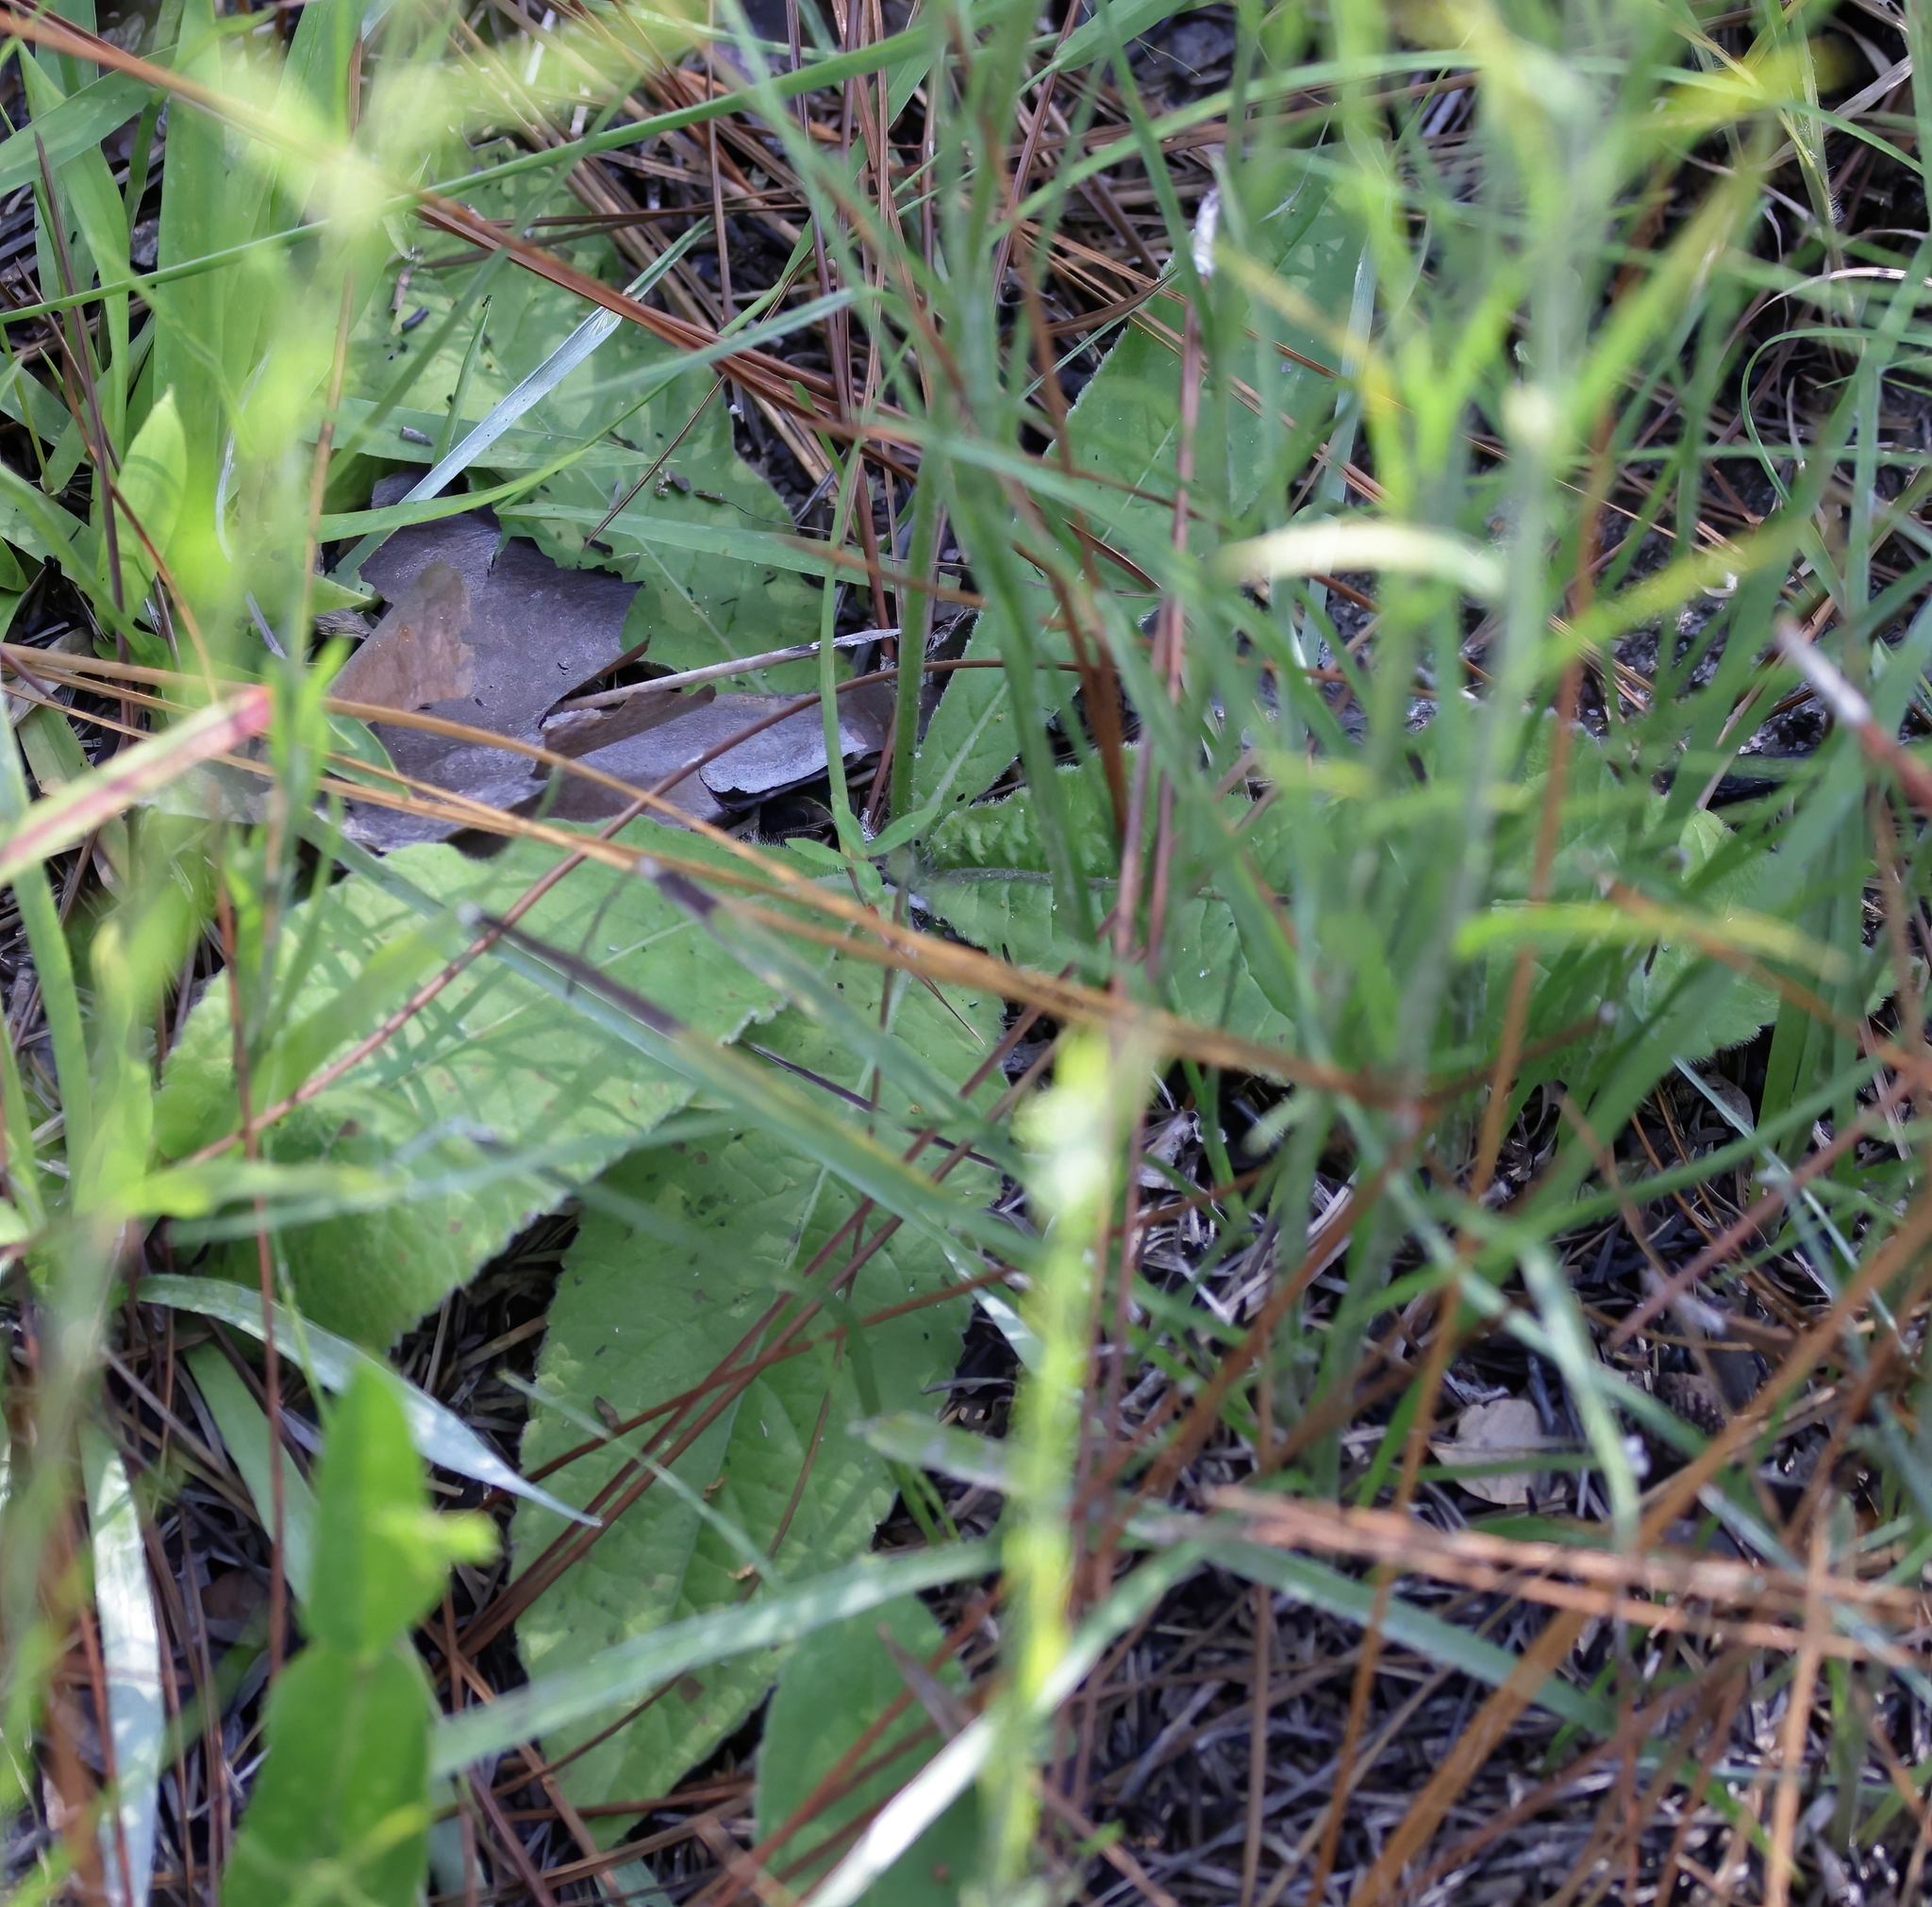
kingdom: Plantae
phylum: Tracheophyta
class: Magnoliopsida
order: Asterales
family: Asteraceae
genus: Elephantopus
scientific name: Elephantopus elatus
